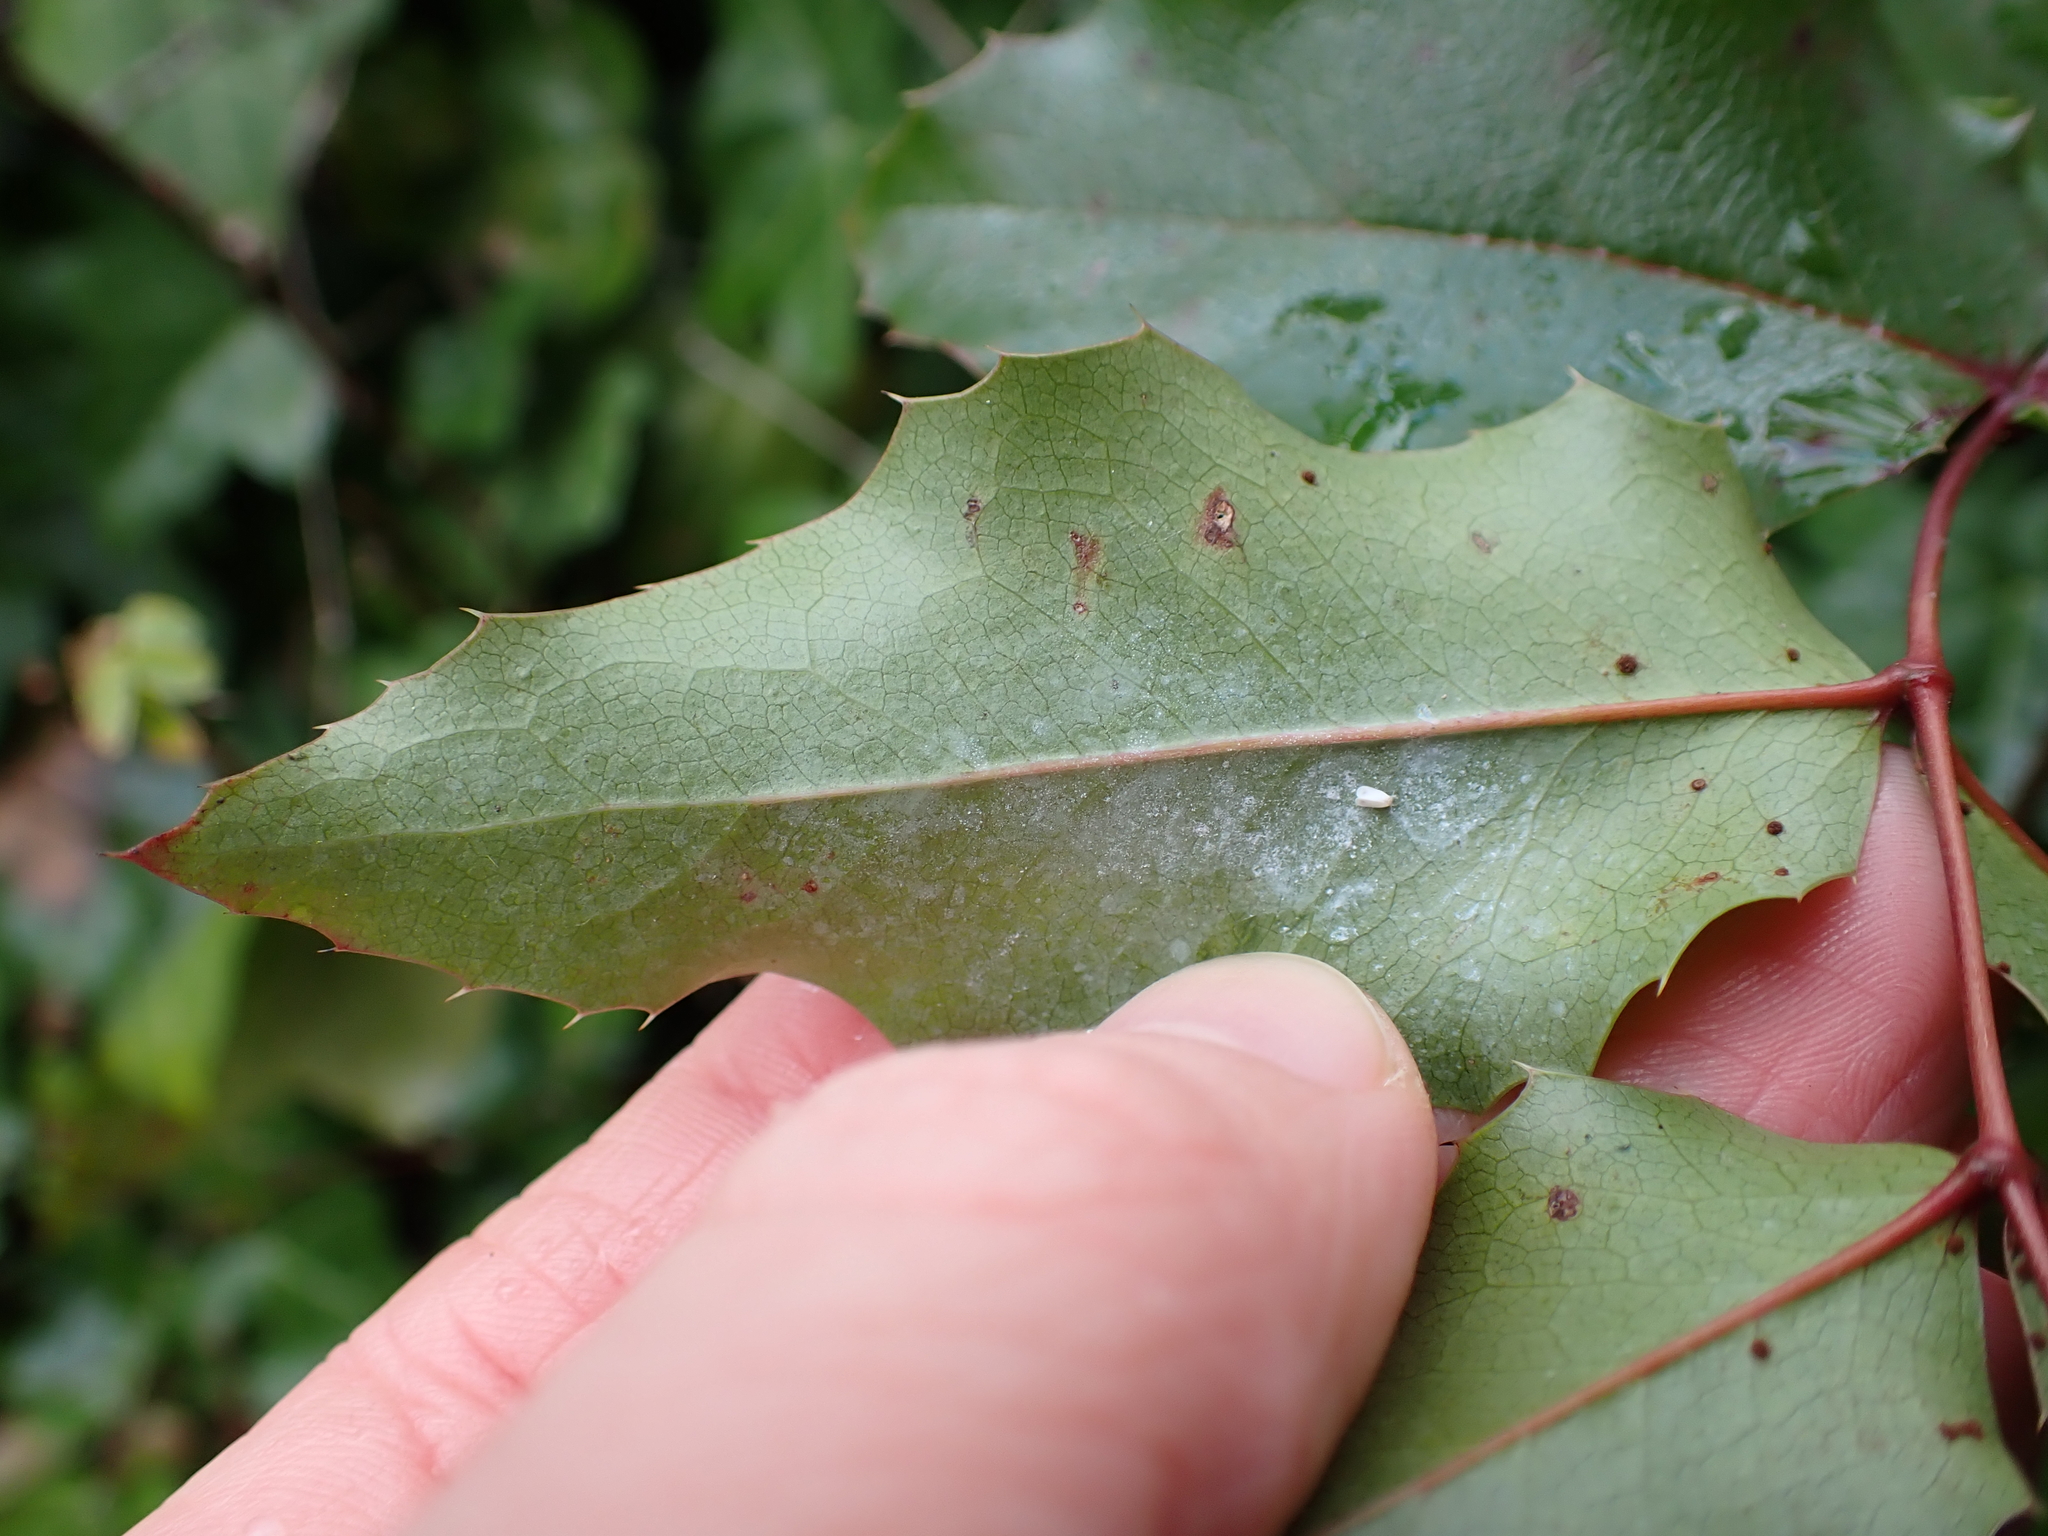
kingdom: Plantae
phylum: Tracheophyta
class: Magnoliopsida
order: Ranunculales
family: Berberidaceae
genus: Mahonia
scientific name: Mahonia aquifolium
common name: Oregon-grape
